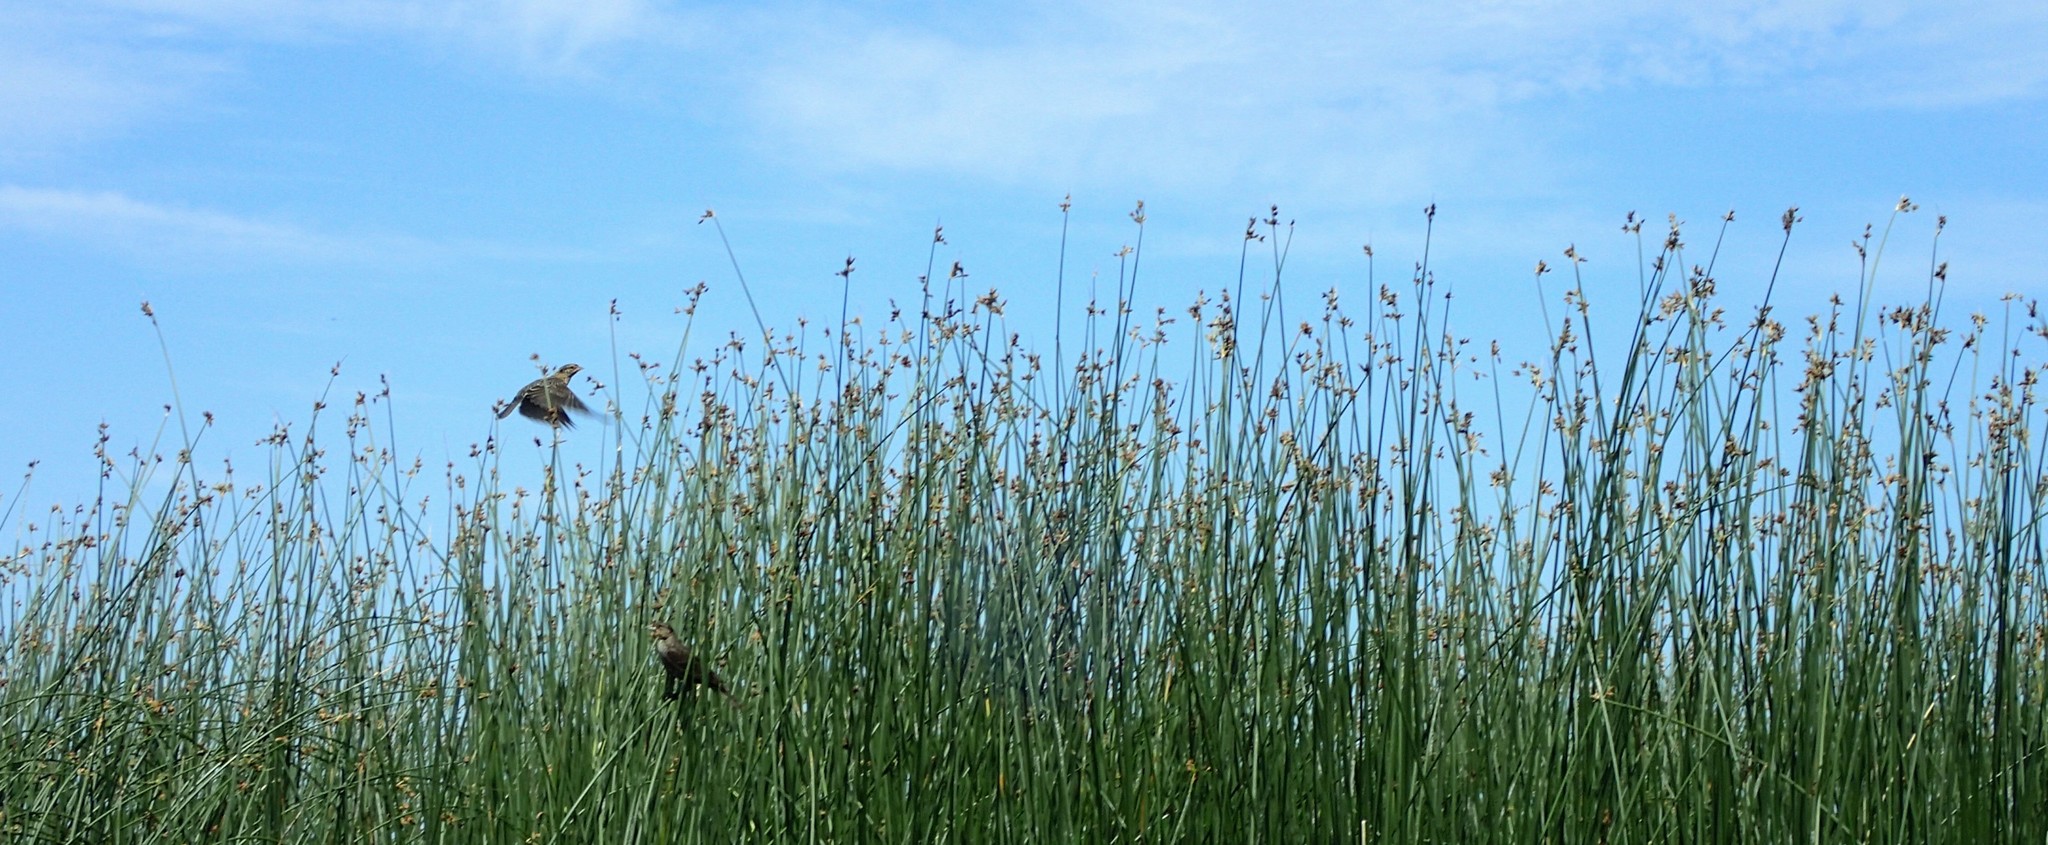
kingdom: Animalia
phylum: Chordata
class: Aves
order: Passeriformes
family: Icteridae
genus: Agelaius
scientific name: Agelaius phoeniceus
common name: Red-winged blackbird
